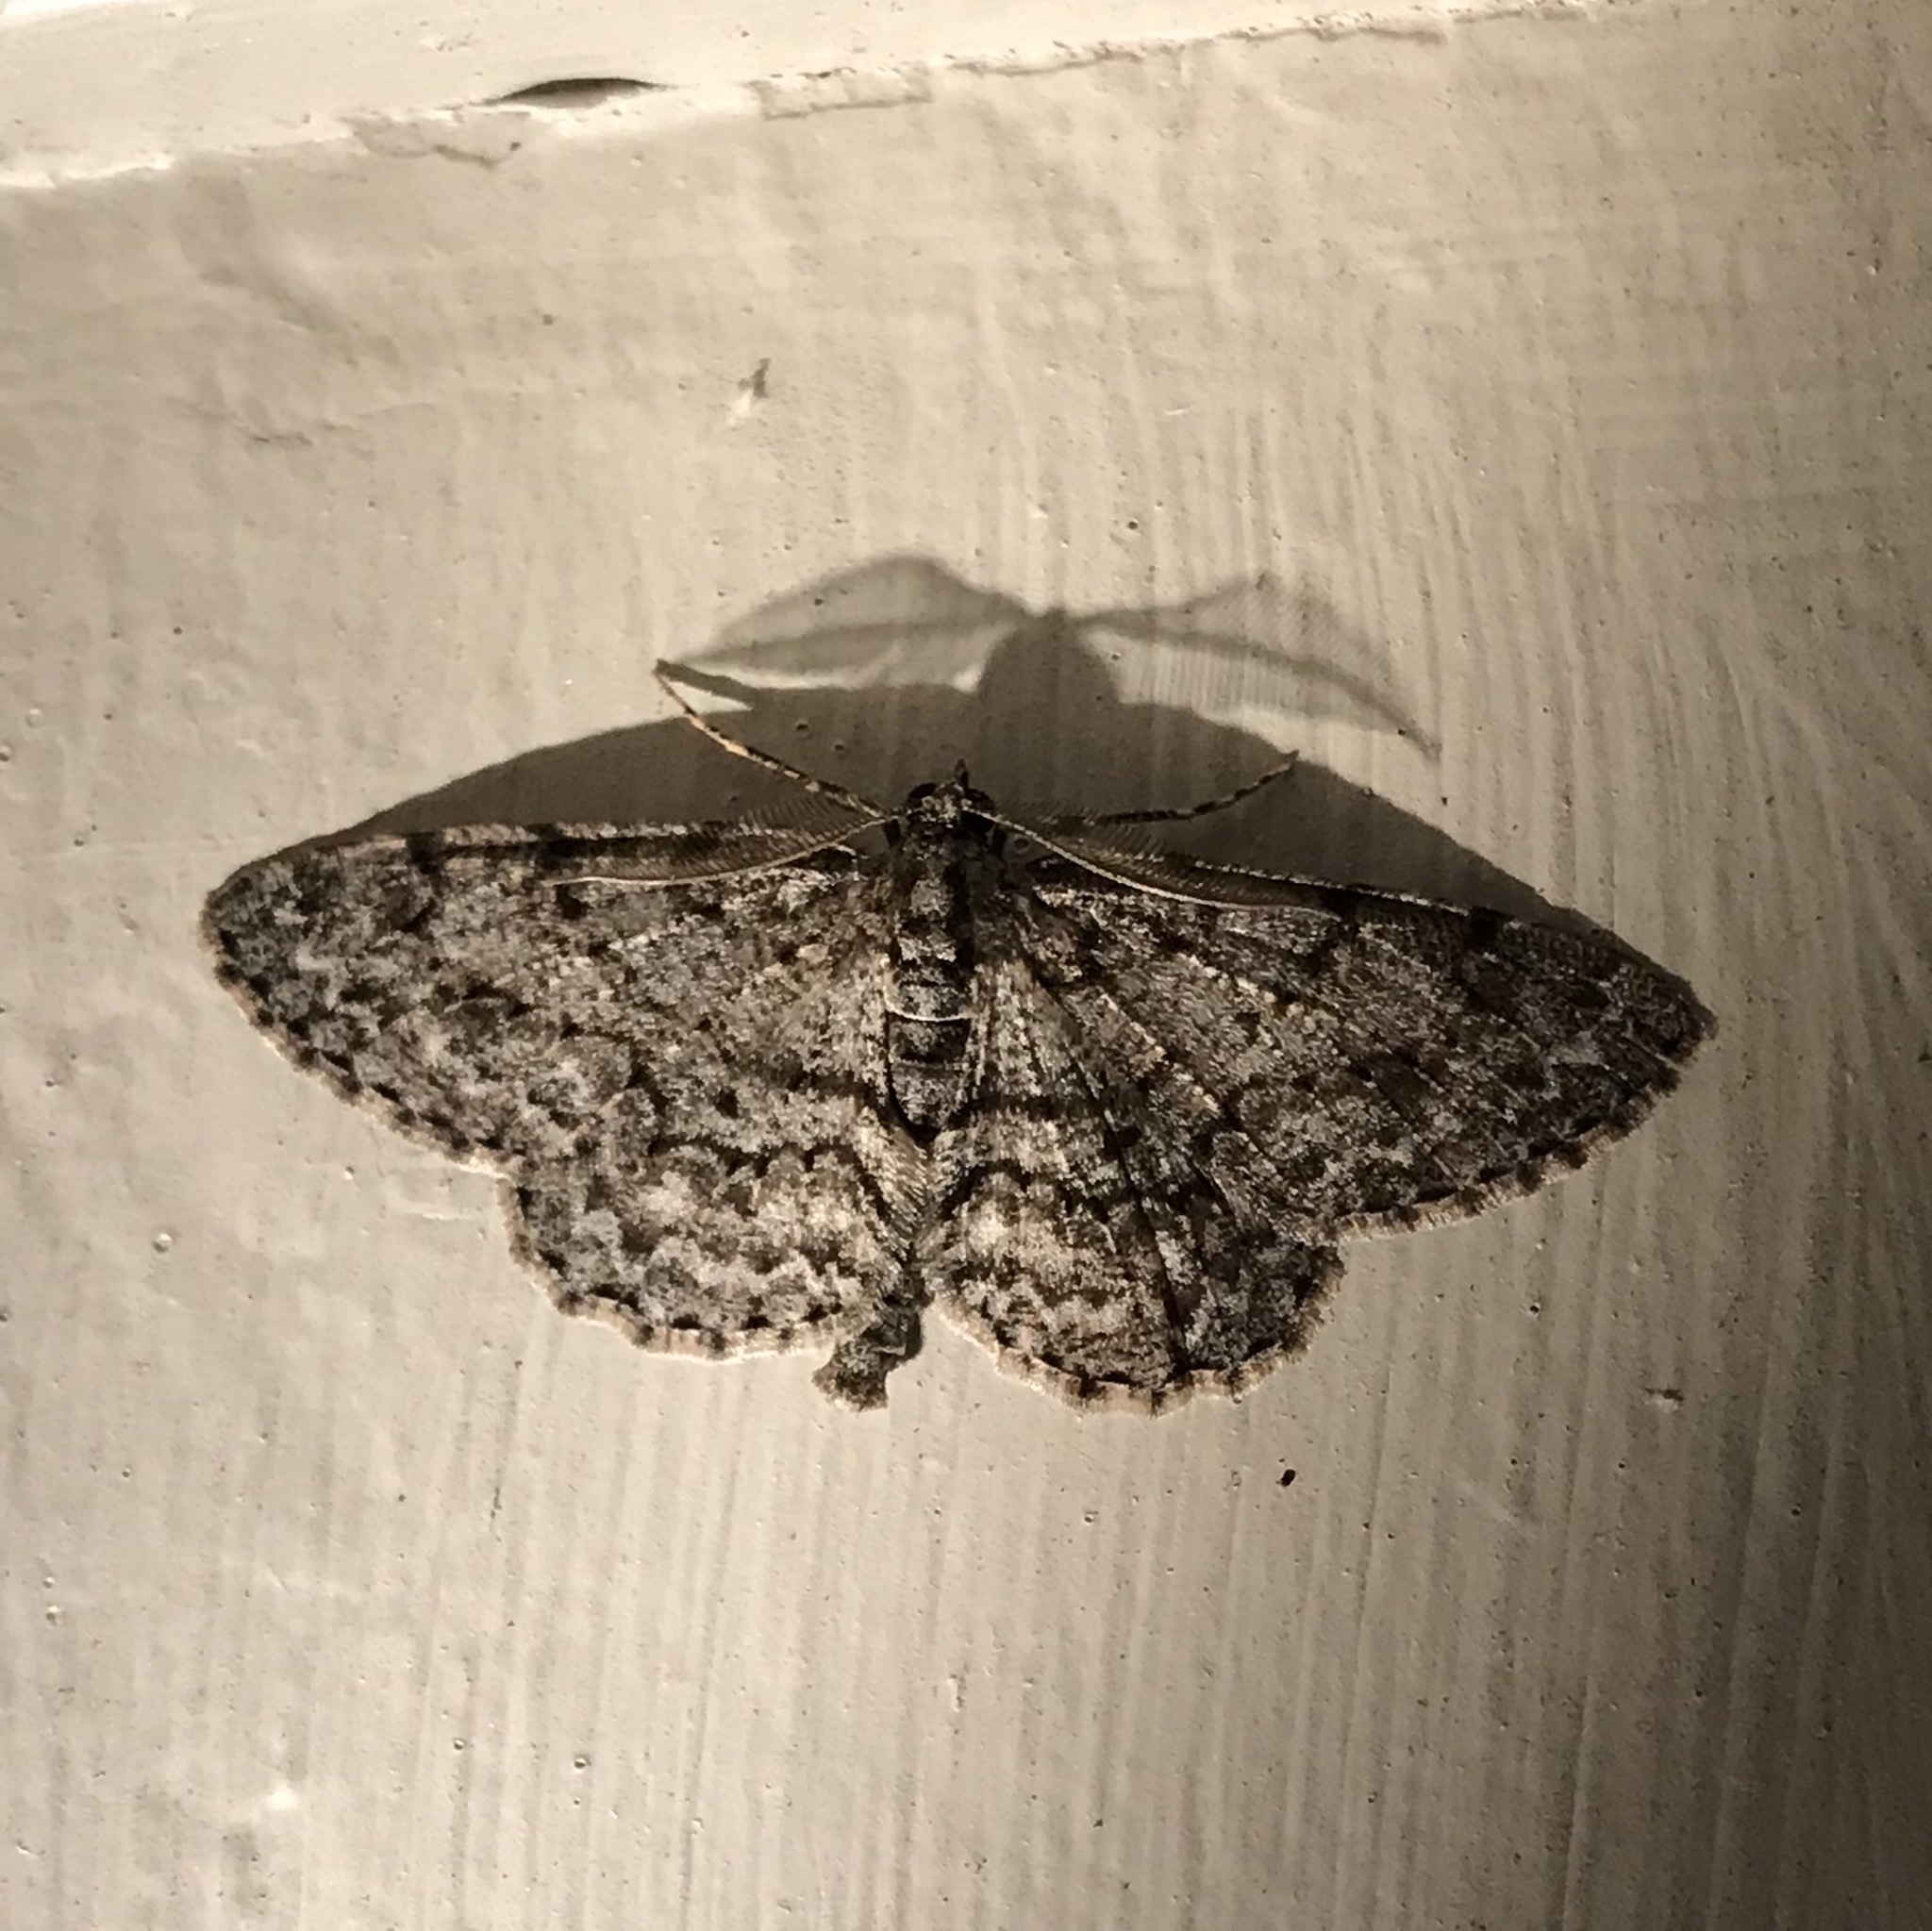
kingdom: Animalia
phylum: Arthropoda
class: Insecta
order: Lepidoptera
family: Geometridae
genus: Protoboarmia
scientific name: Protoboarmia porcelaria
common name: Porcelain gray
